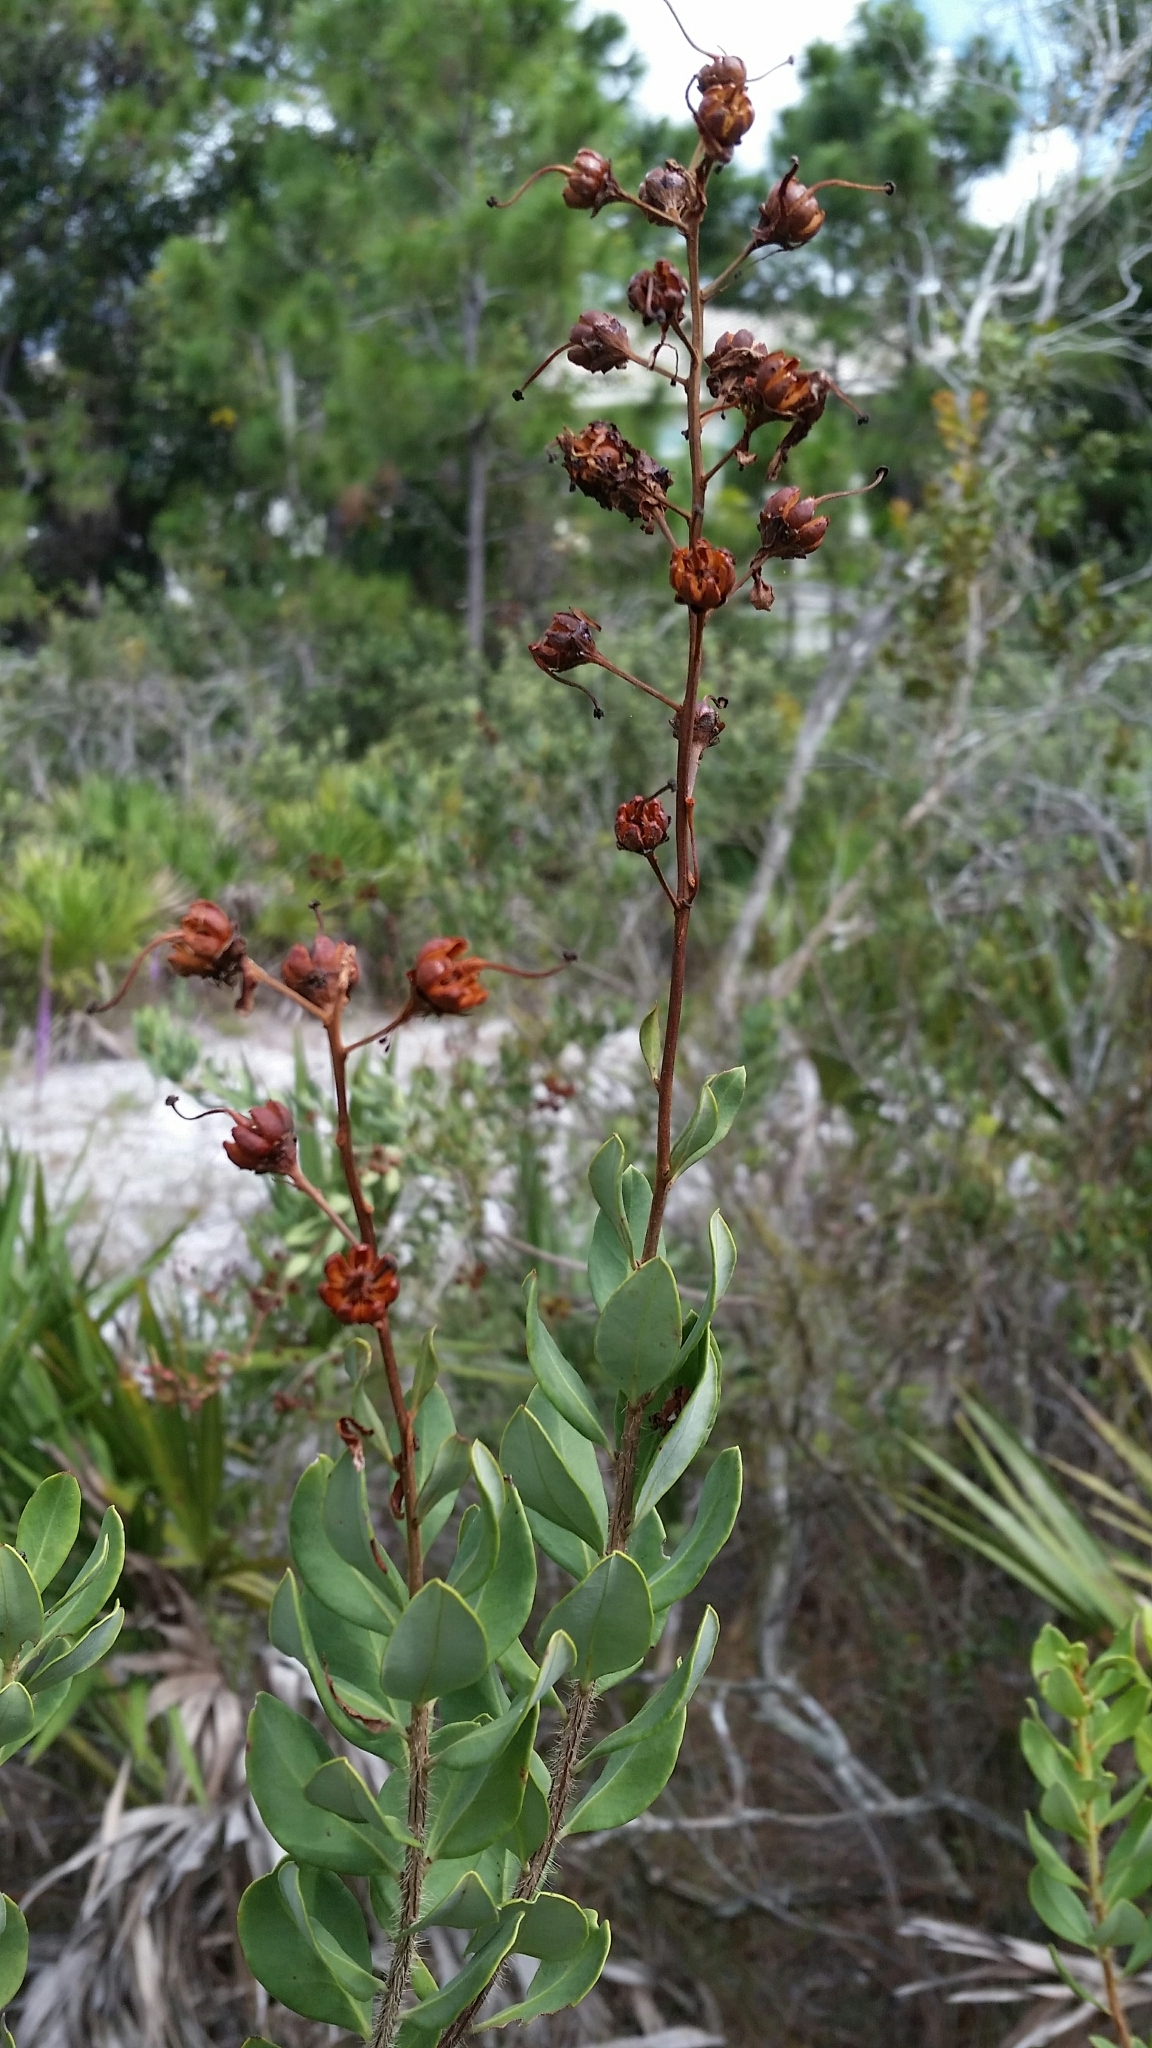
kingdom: Plantae
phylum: Tracheophyta
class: Magnoliopsida
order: Ericales
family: Ericaceae
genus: Bejaria
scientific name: Bejaria racemosa
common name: Tarflower
